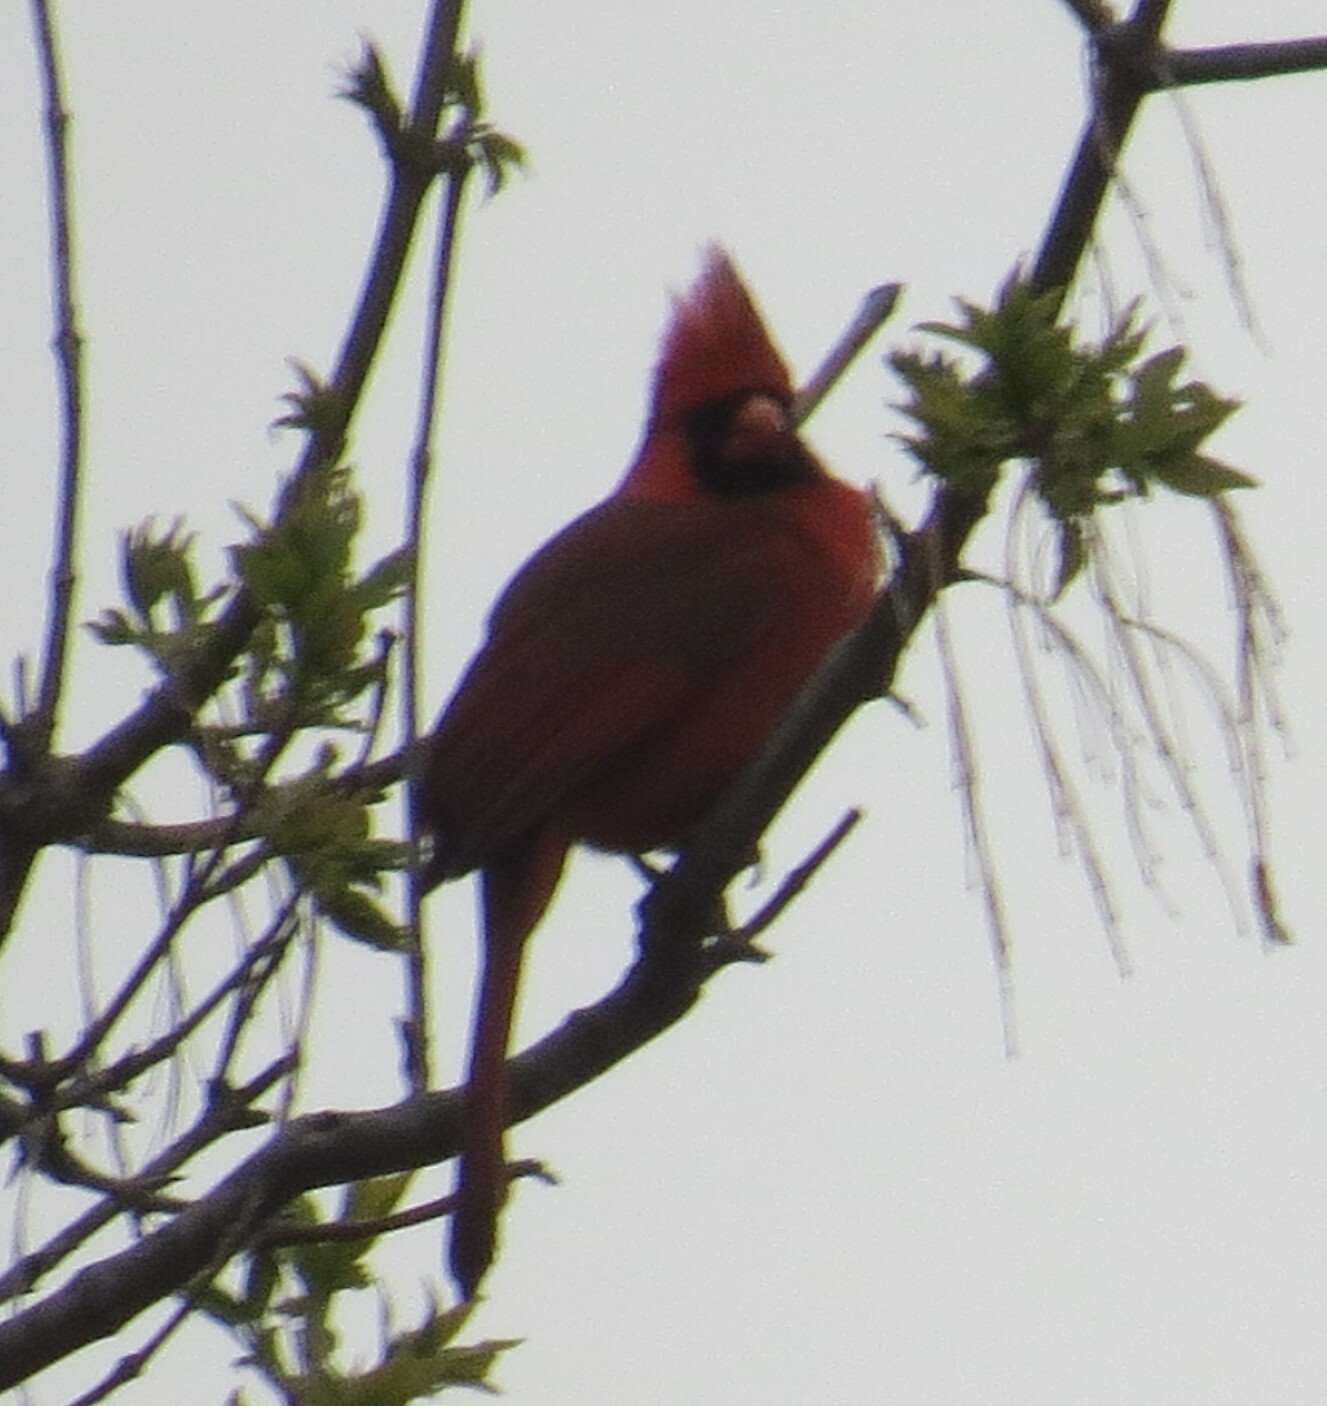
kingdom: Animalia
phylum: Chordata
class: Aves
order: Passeriformes
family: Cardinalidae
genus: Cardinalis
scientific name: Cardinalis cardinalis
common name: Northern cardinal
